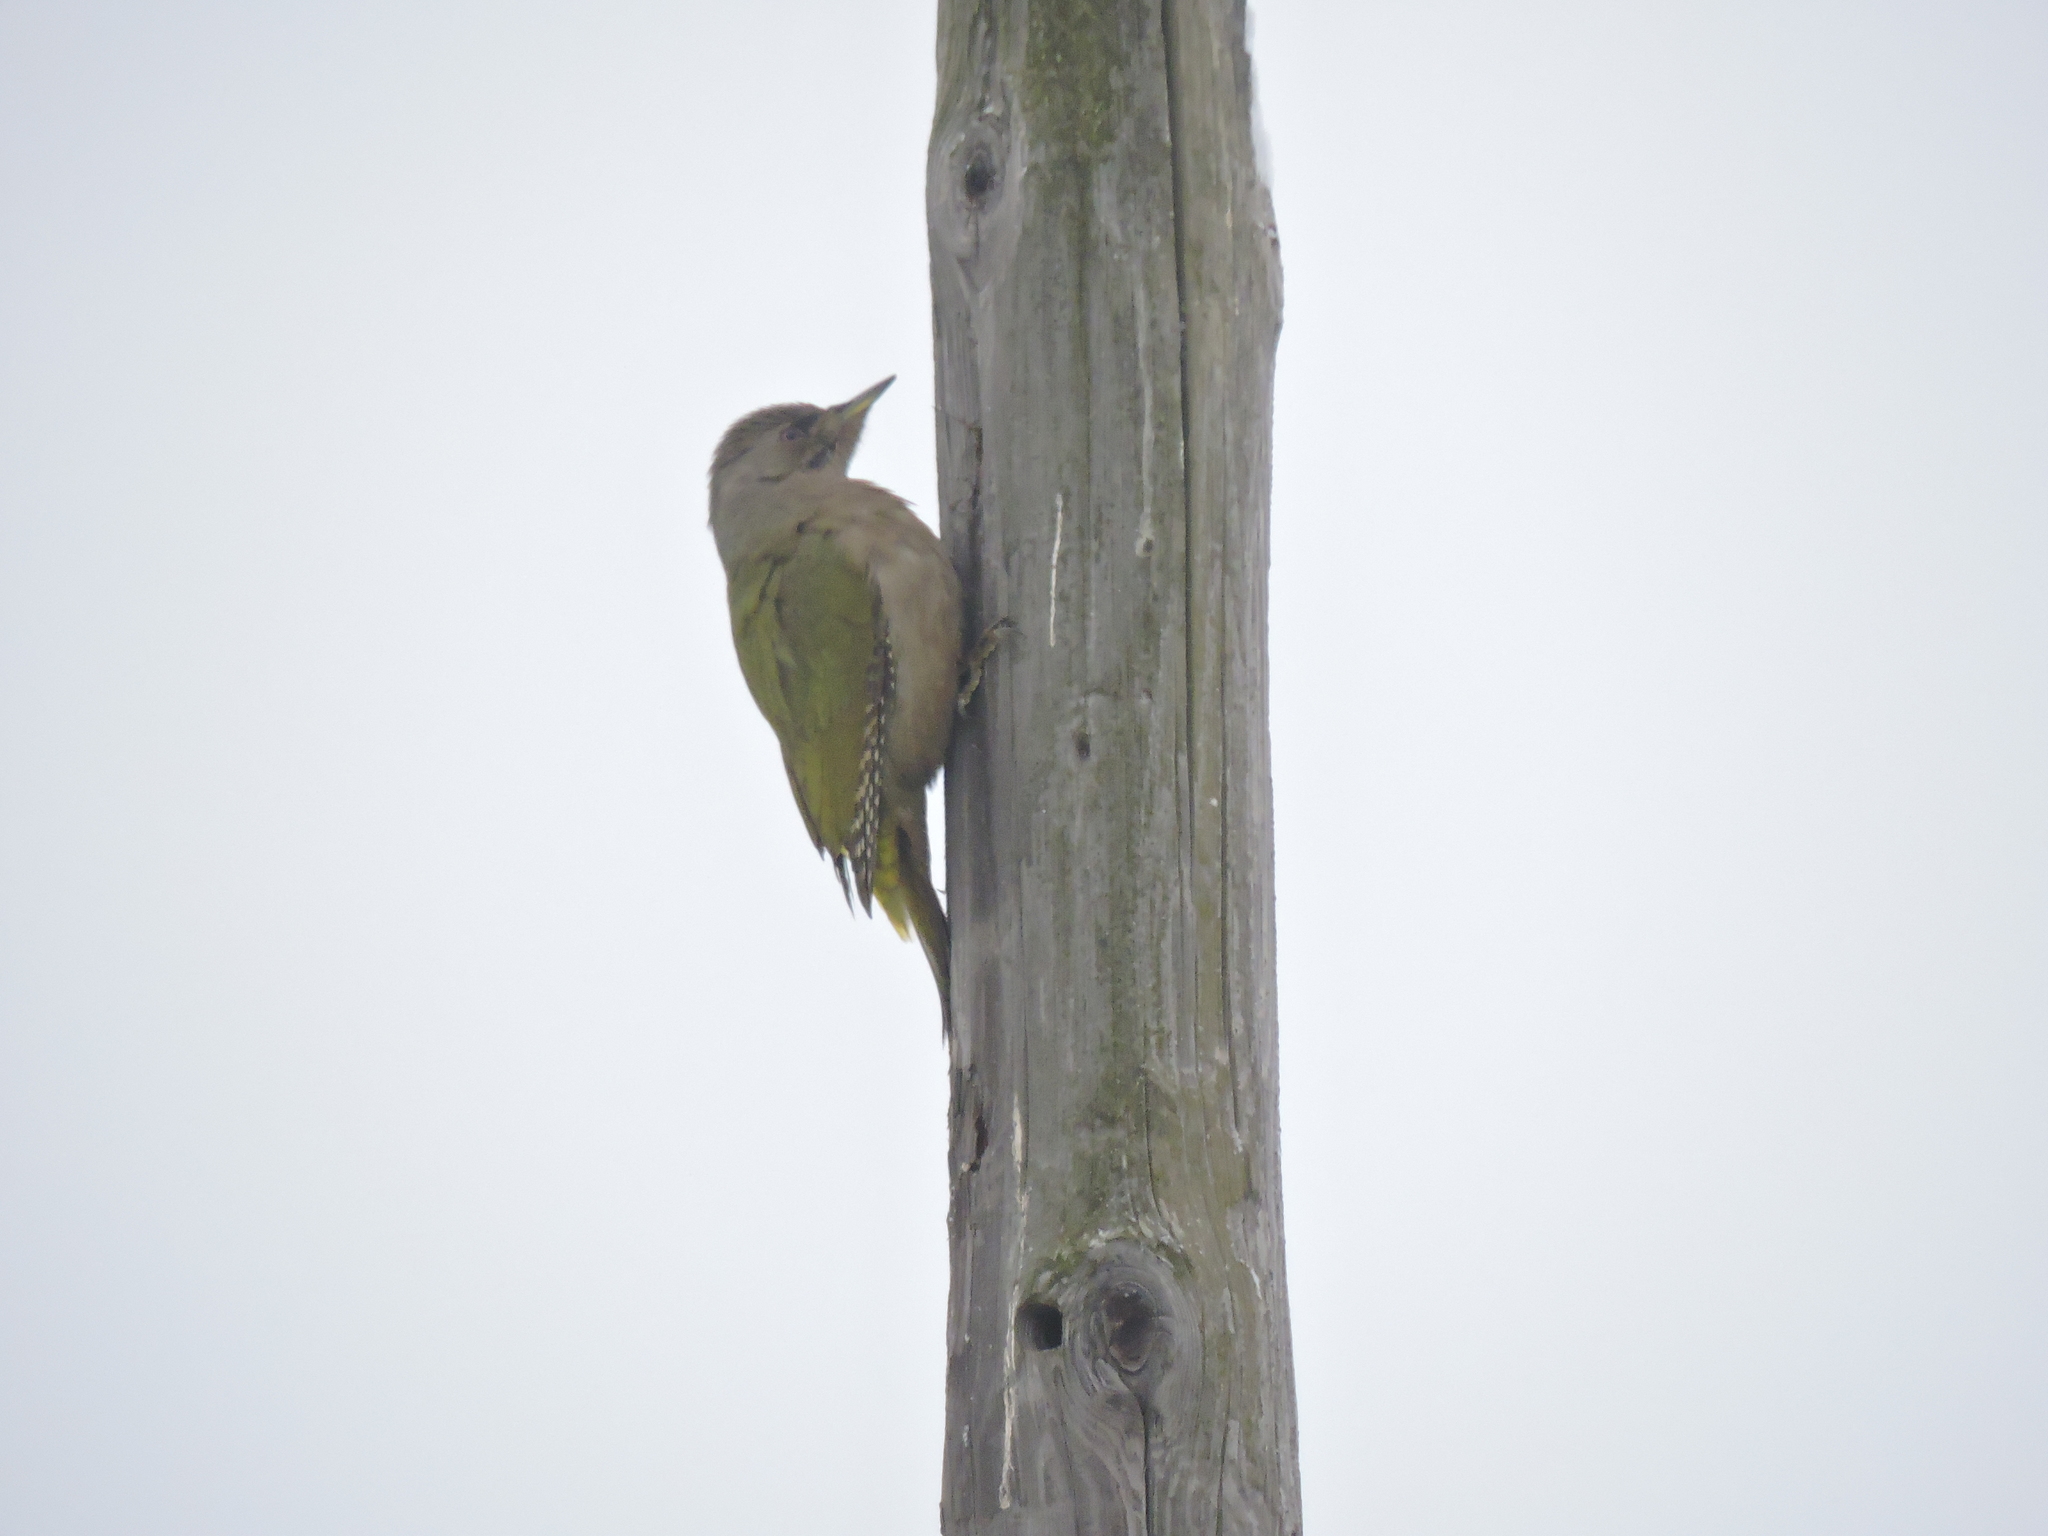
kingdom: Animalia
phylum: Chordata
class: Aves
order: Piciformes
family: Picidae
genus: Picus
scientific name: Picus canus
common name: Grey-headed woodpecker
